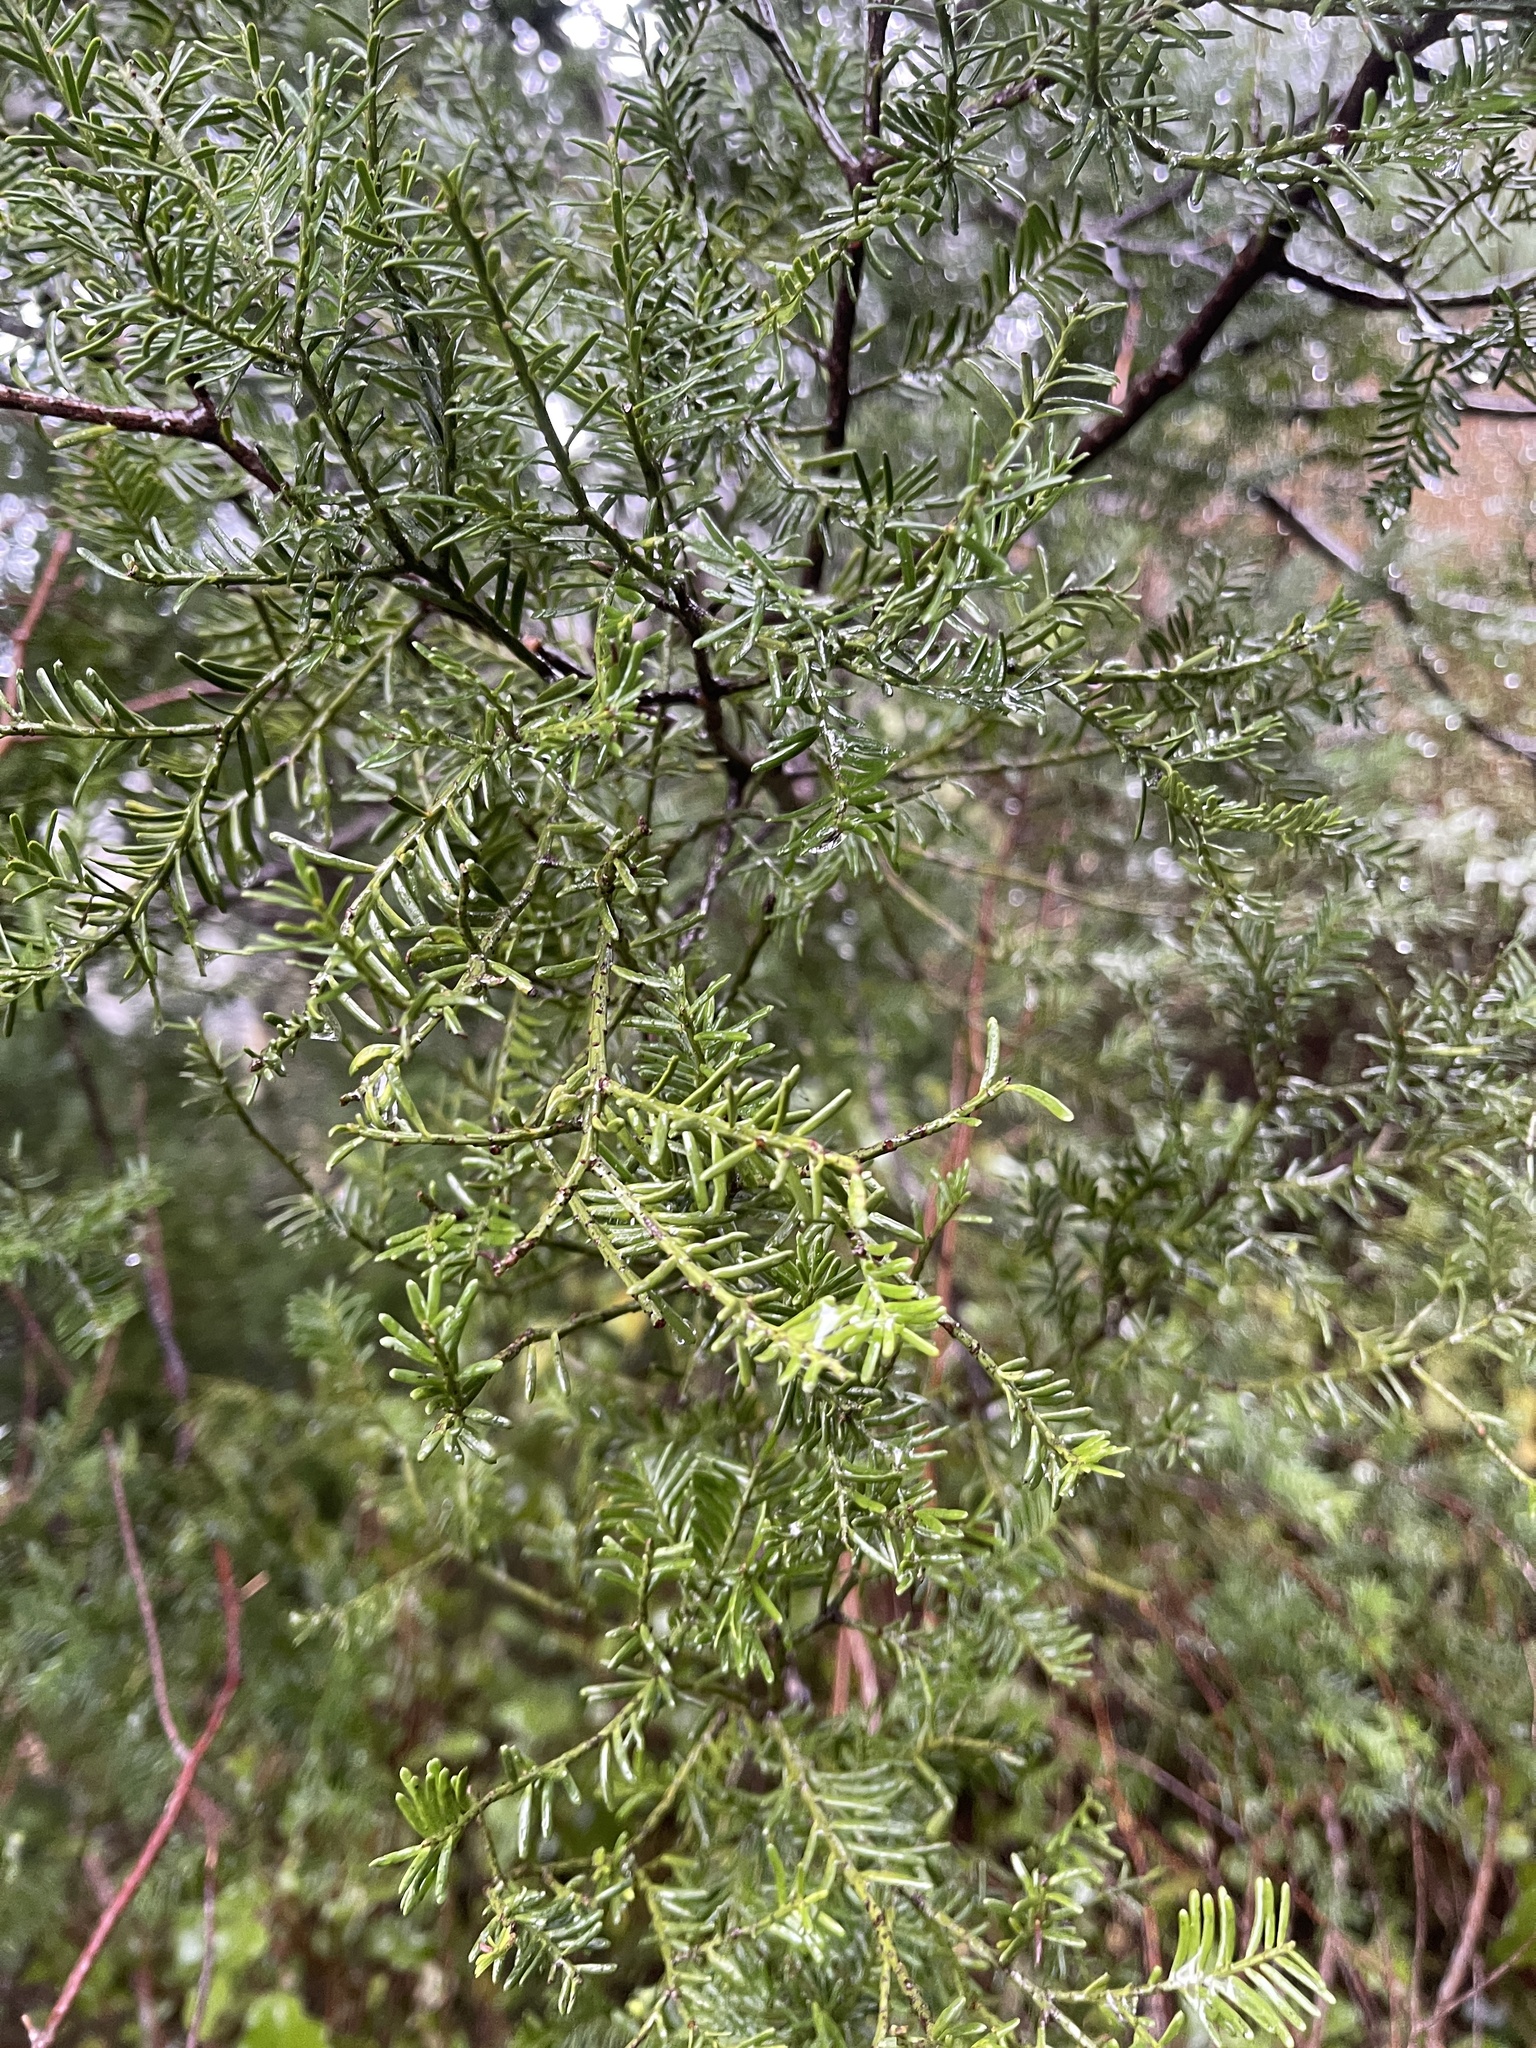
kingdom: Plantae
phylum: Tracheophyta
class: Pinopsida
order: Pinales
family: Podocarpaceae
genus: Prumnopitys
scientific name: Prumnopitys taxifolia
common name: Matai
